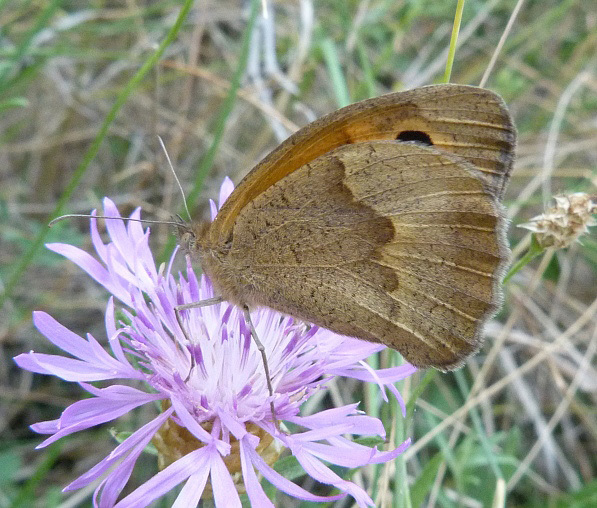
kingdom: Animalia
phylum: Arthropoda
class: Insecta
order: Lepidoptera
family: Nymphalidae
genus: Maniola
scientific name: Maniola jurtina
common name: Meadow brown
